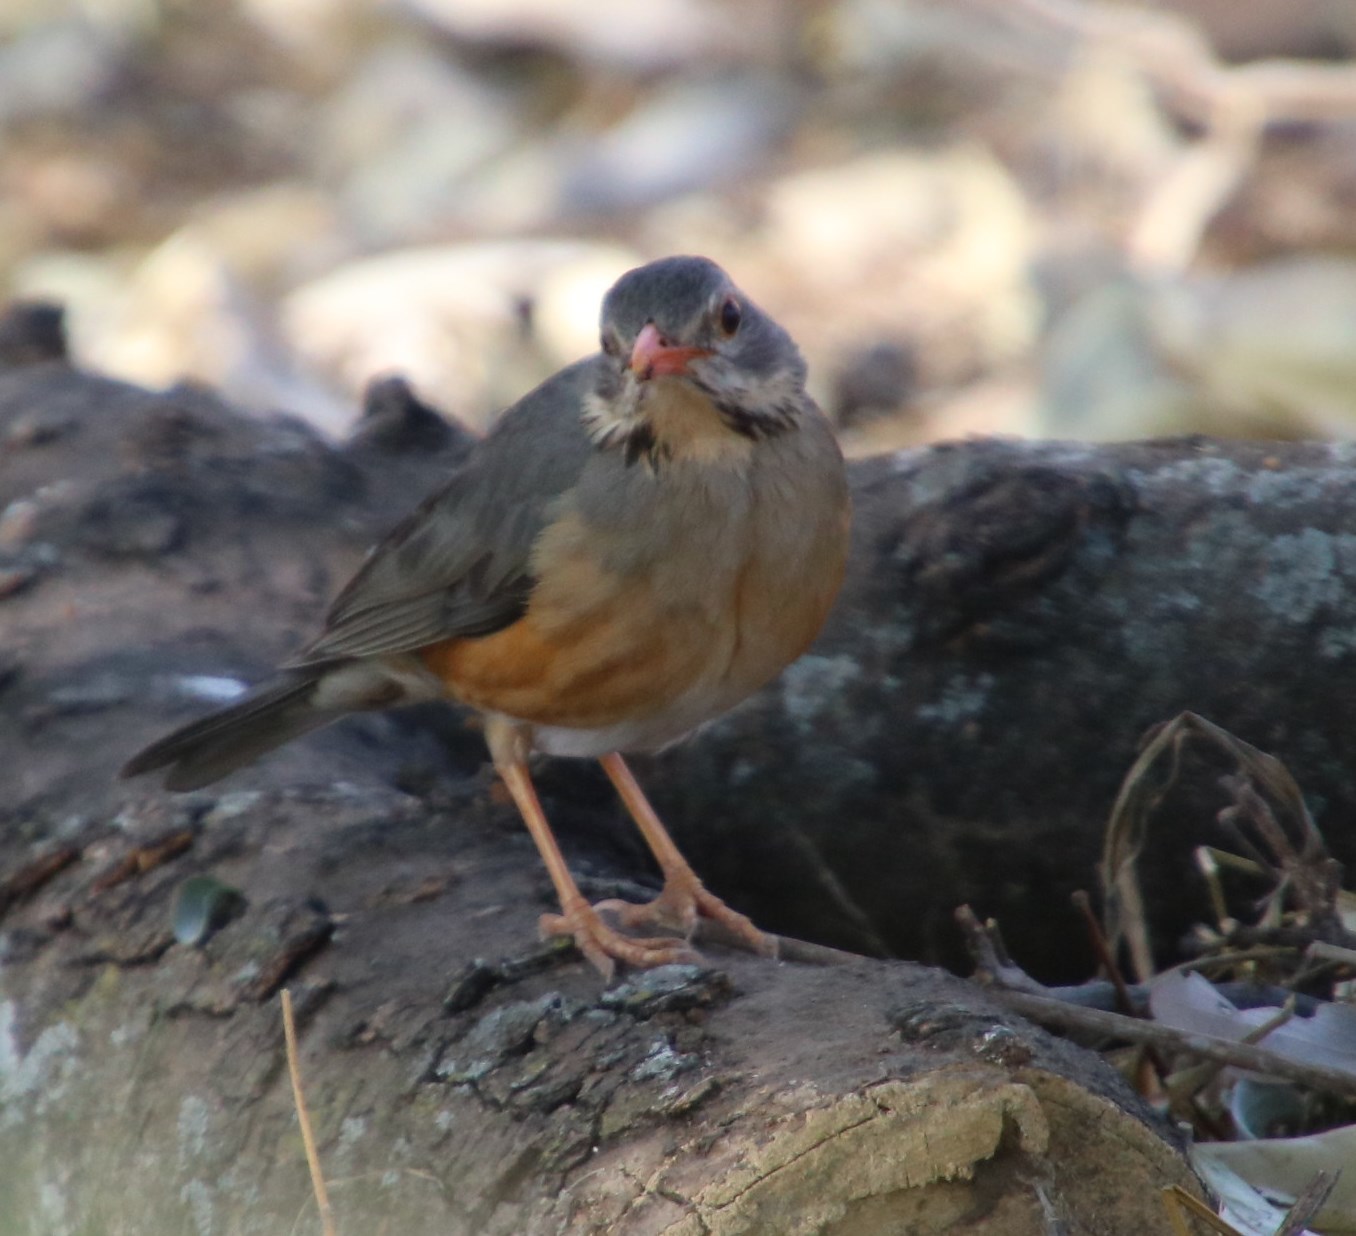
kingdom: Animalia
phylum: Chordata
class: Aves
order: Passeriformes
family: Turdidae
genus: Turdus
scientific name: Turdus libonyana
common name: Kurrichane thrush
